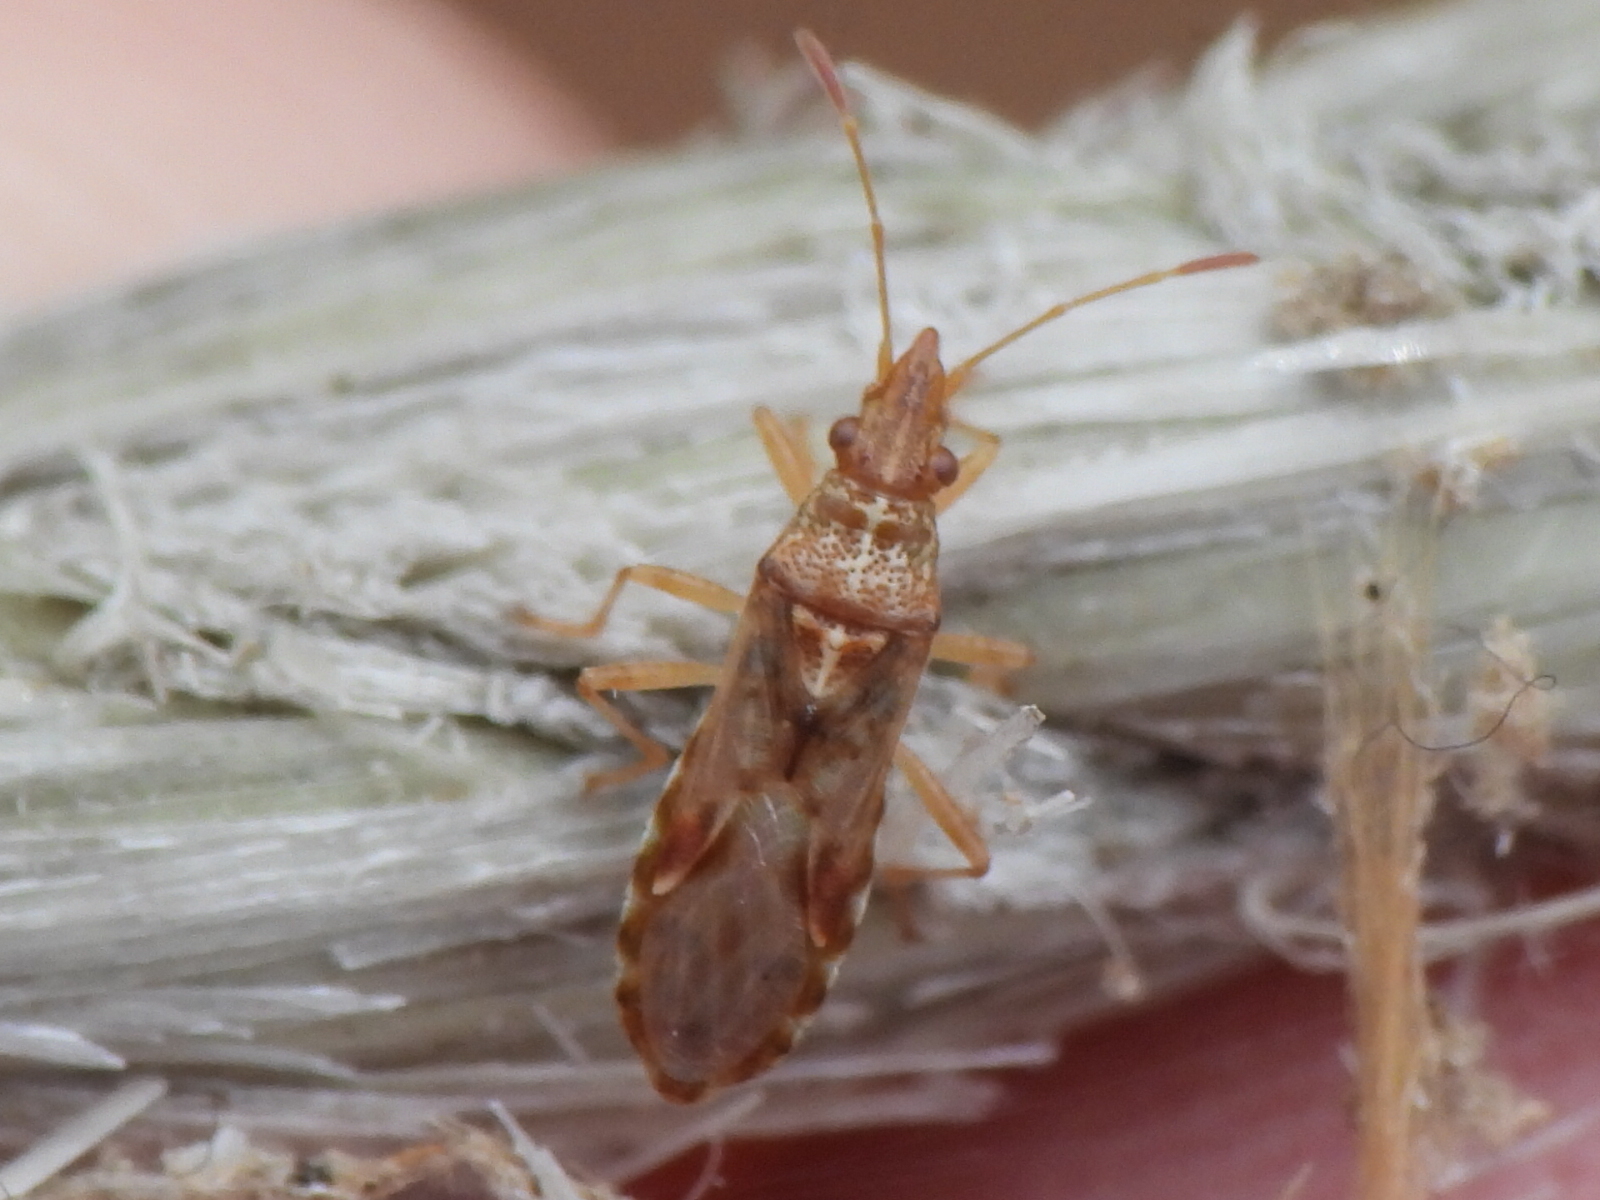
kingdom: Animalia
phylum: Arthropoda
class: Insecta
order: Hemiptera
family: Lygaeidae
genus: Belonochilus
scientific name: Belonochilus numenius
